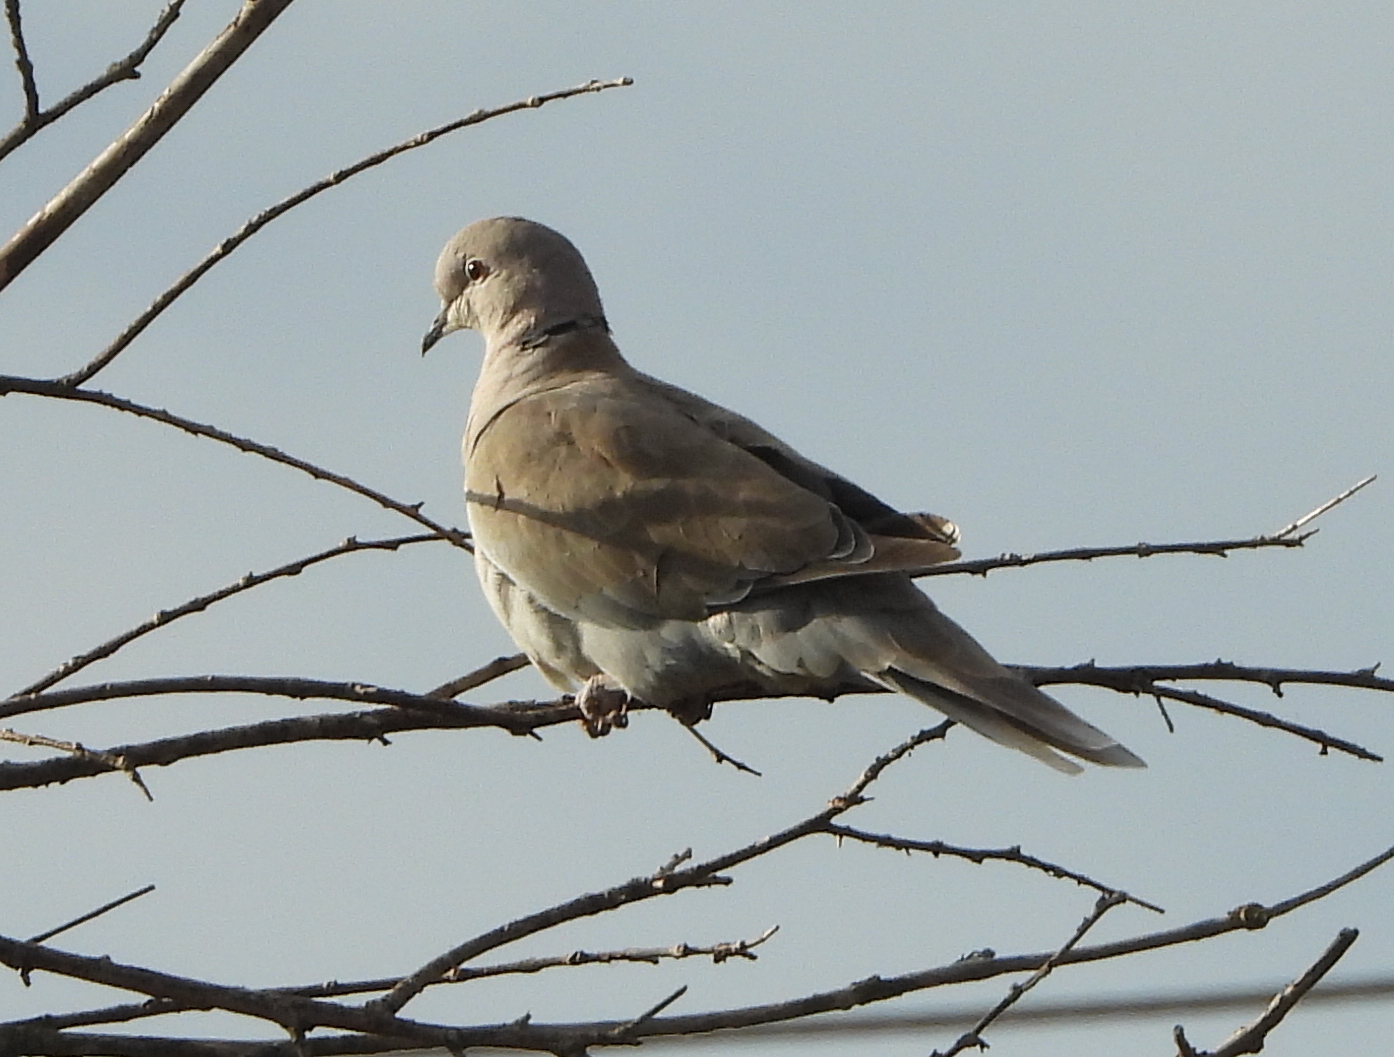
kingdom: Animalia
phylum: Chordata
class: Aves
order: Columbiformes
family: Columbidae
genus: Streptopelia
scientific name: Streptopelia decaocto
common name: Eurasian collared dove
